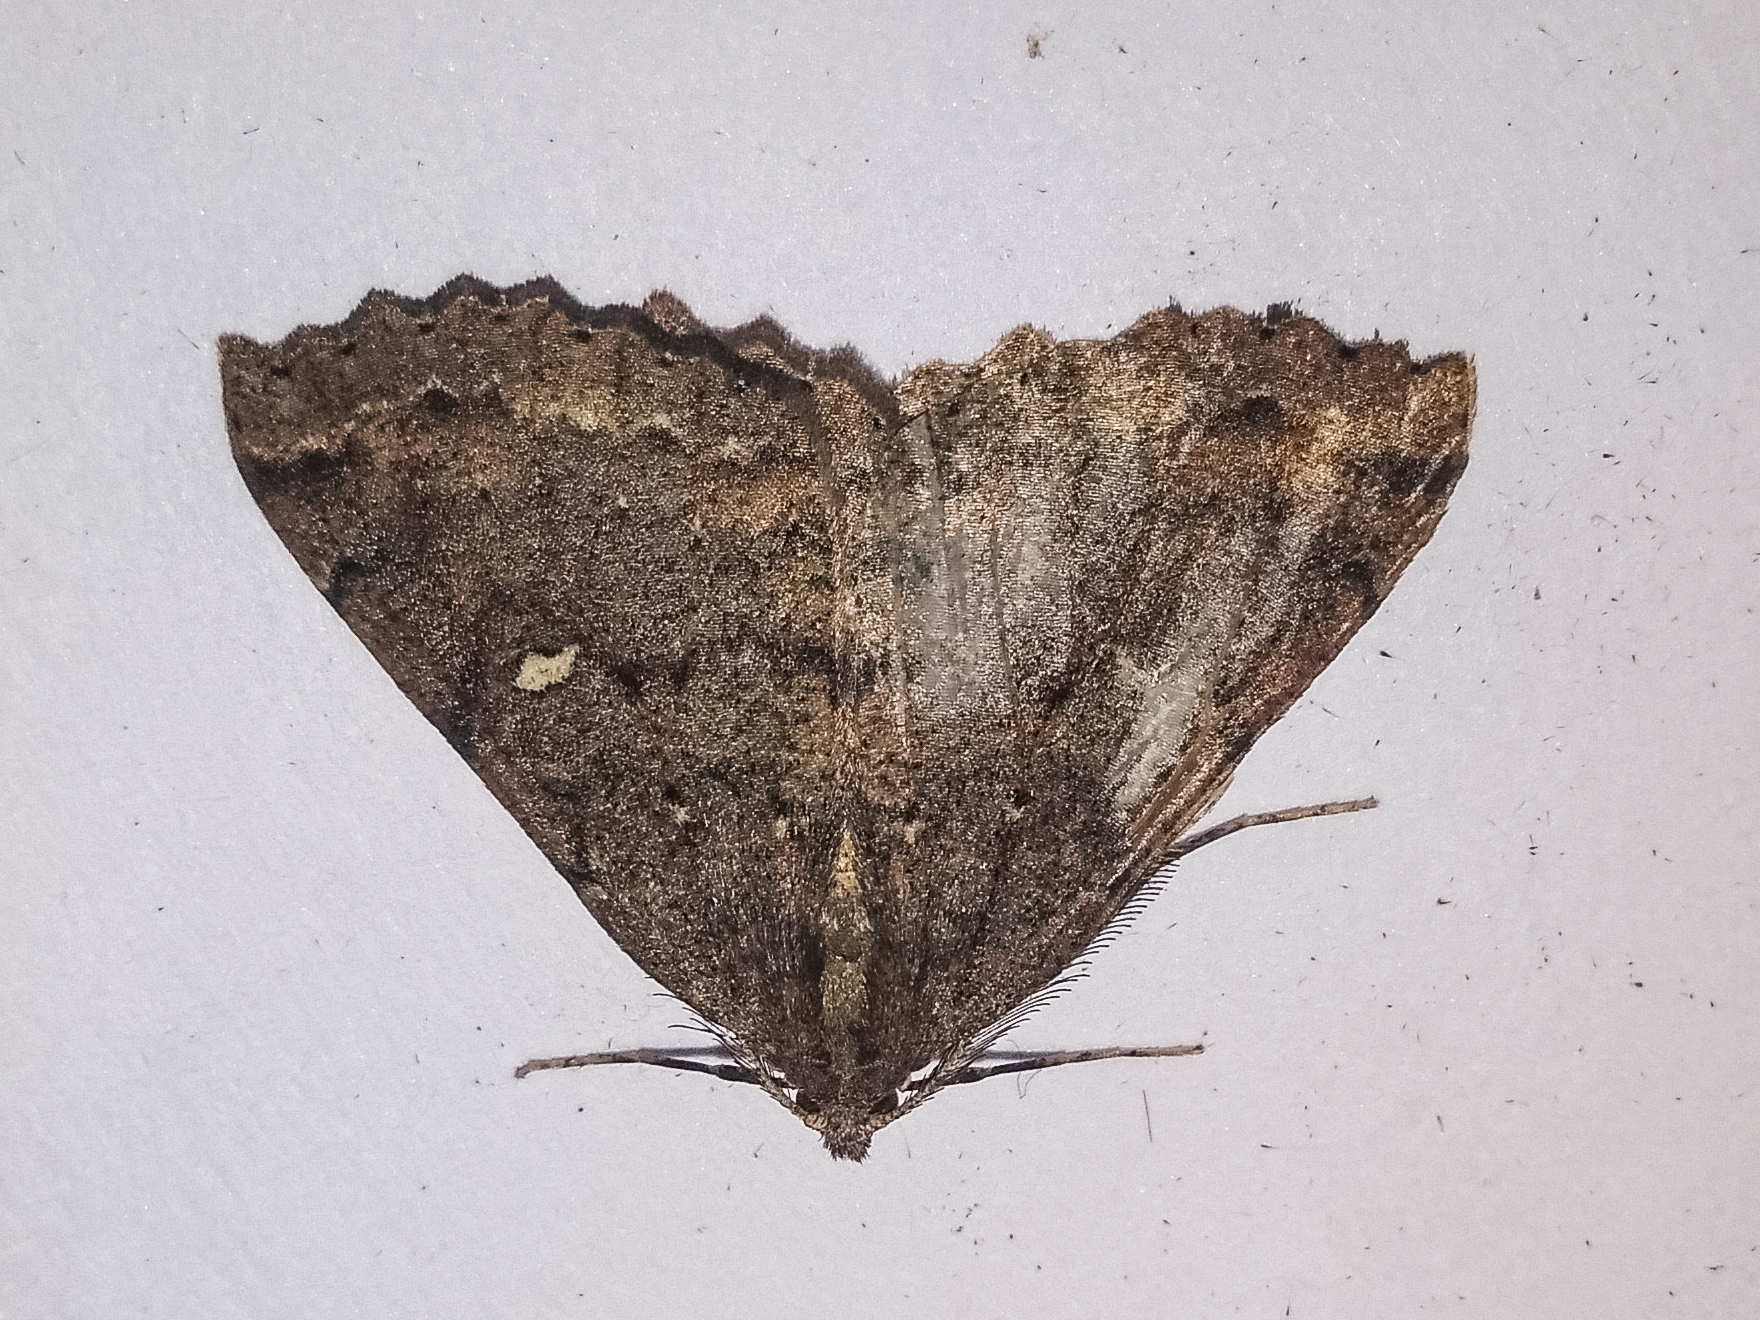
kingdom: Animalia
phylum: Arthropoda
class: Insecta
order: Lepidoptera
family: Geometridae
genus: Cleora
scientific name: Cleora scriptaria
